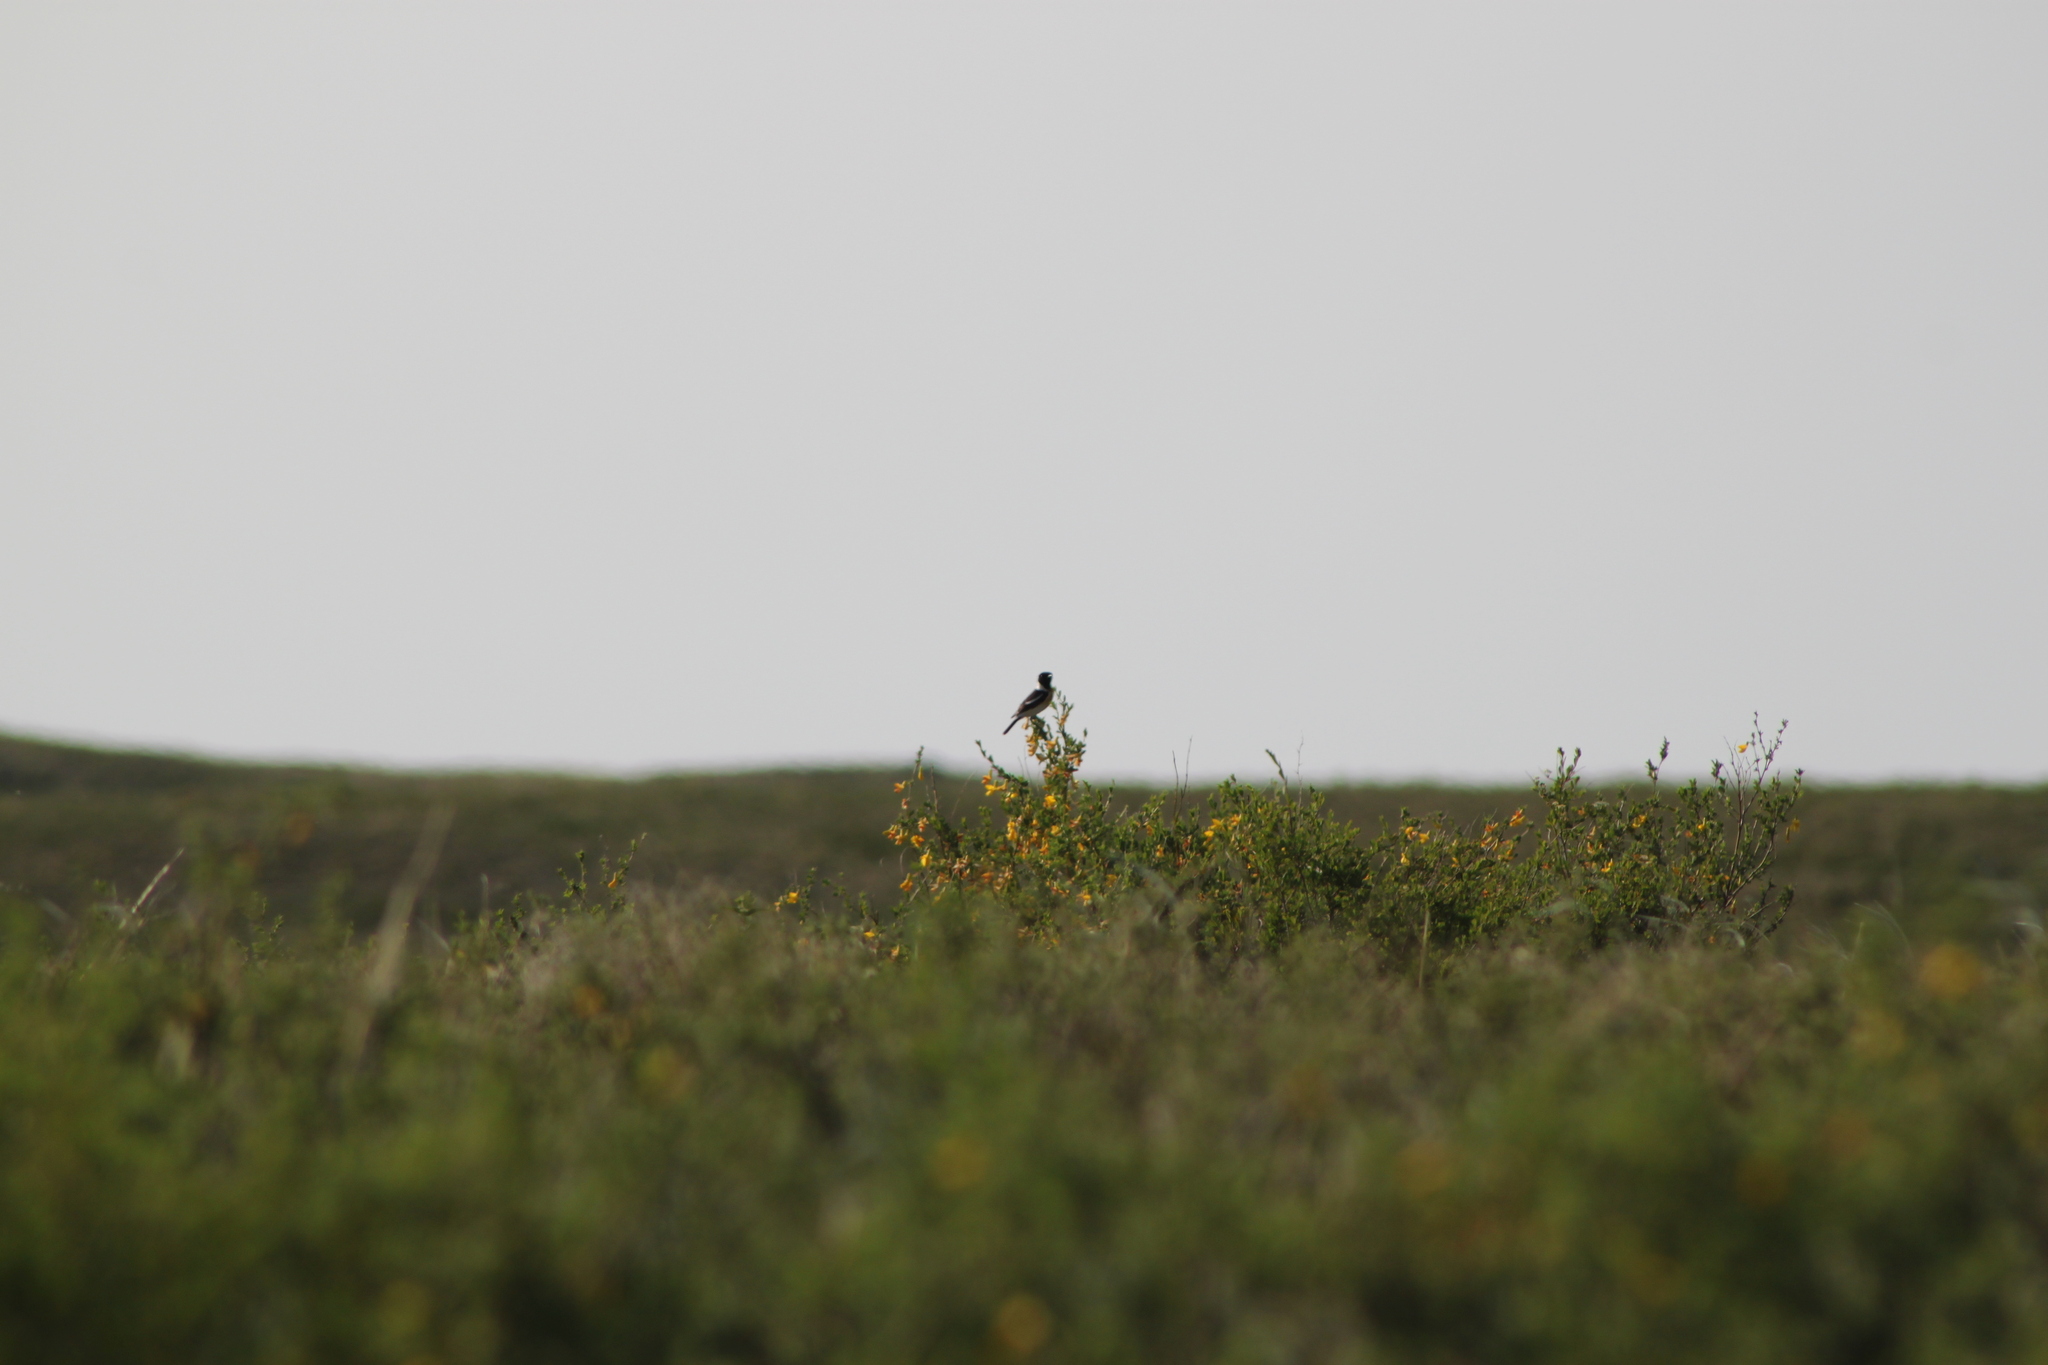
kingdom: Animalia
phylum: Chordata
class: Aves
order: Passeriformes
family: Muscicapidae
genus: Saxicola
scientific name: Saxicola maurus
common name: Siberian stonechat
